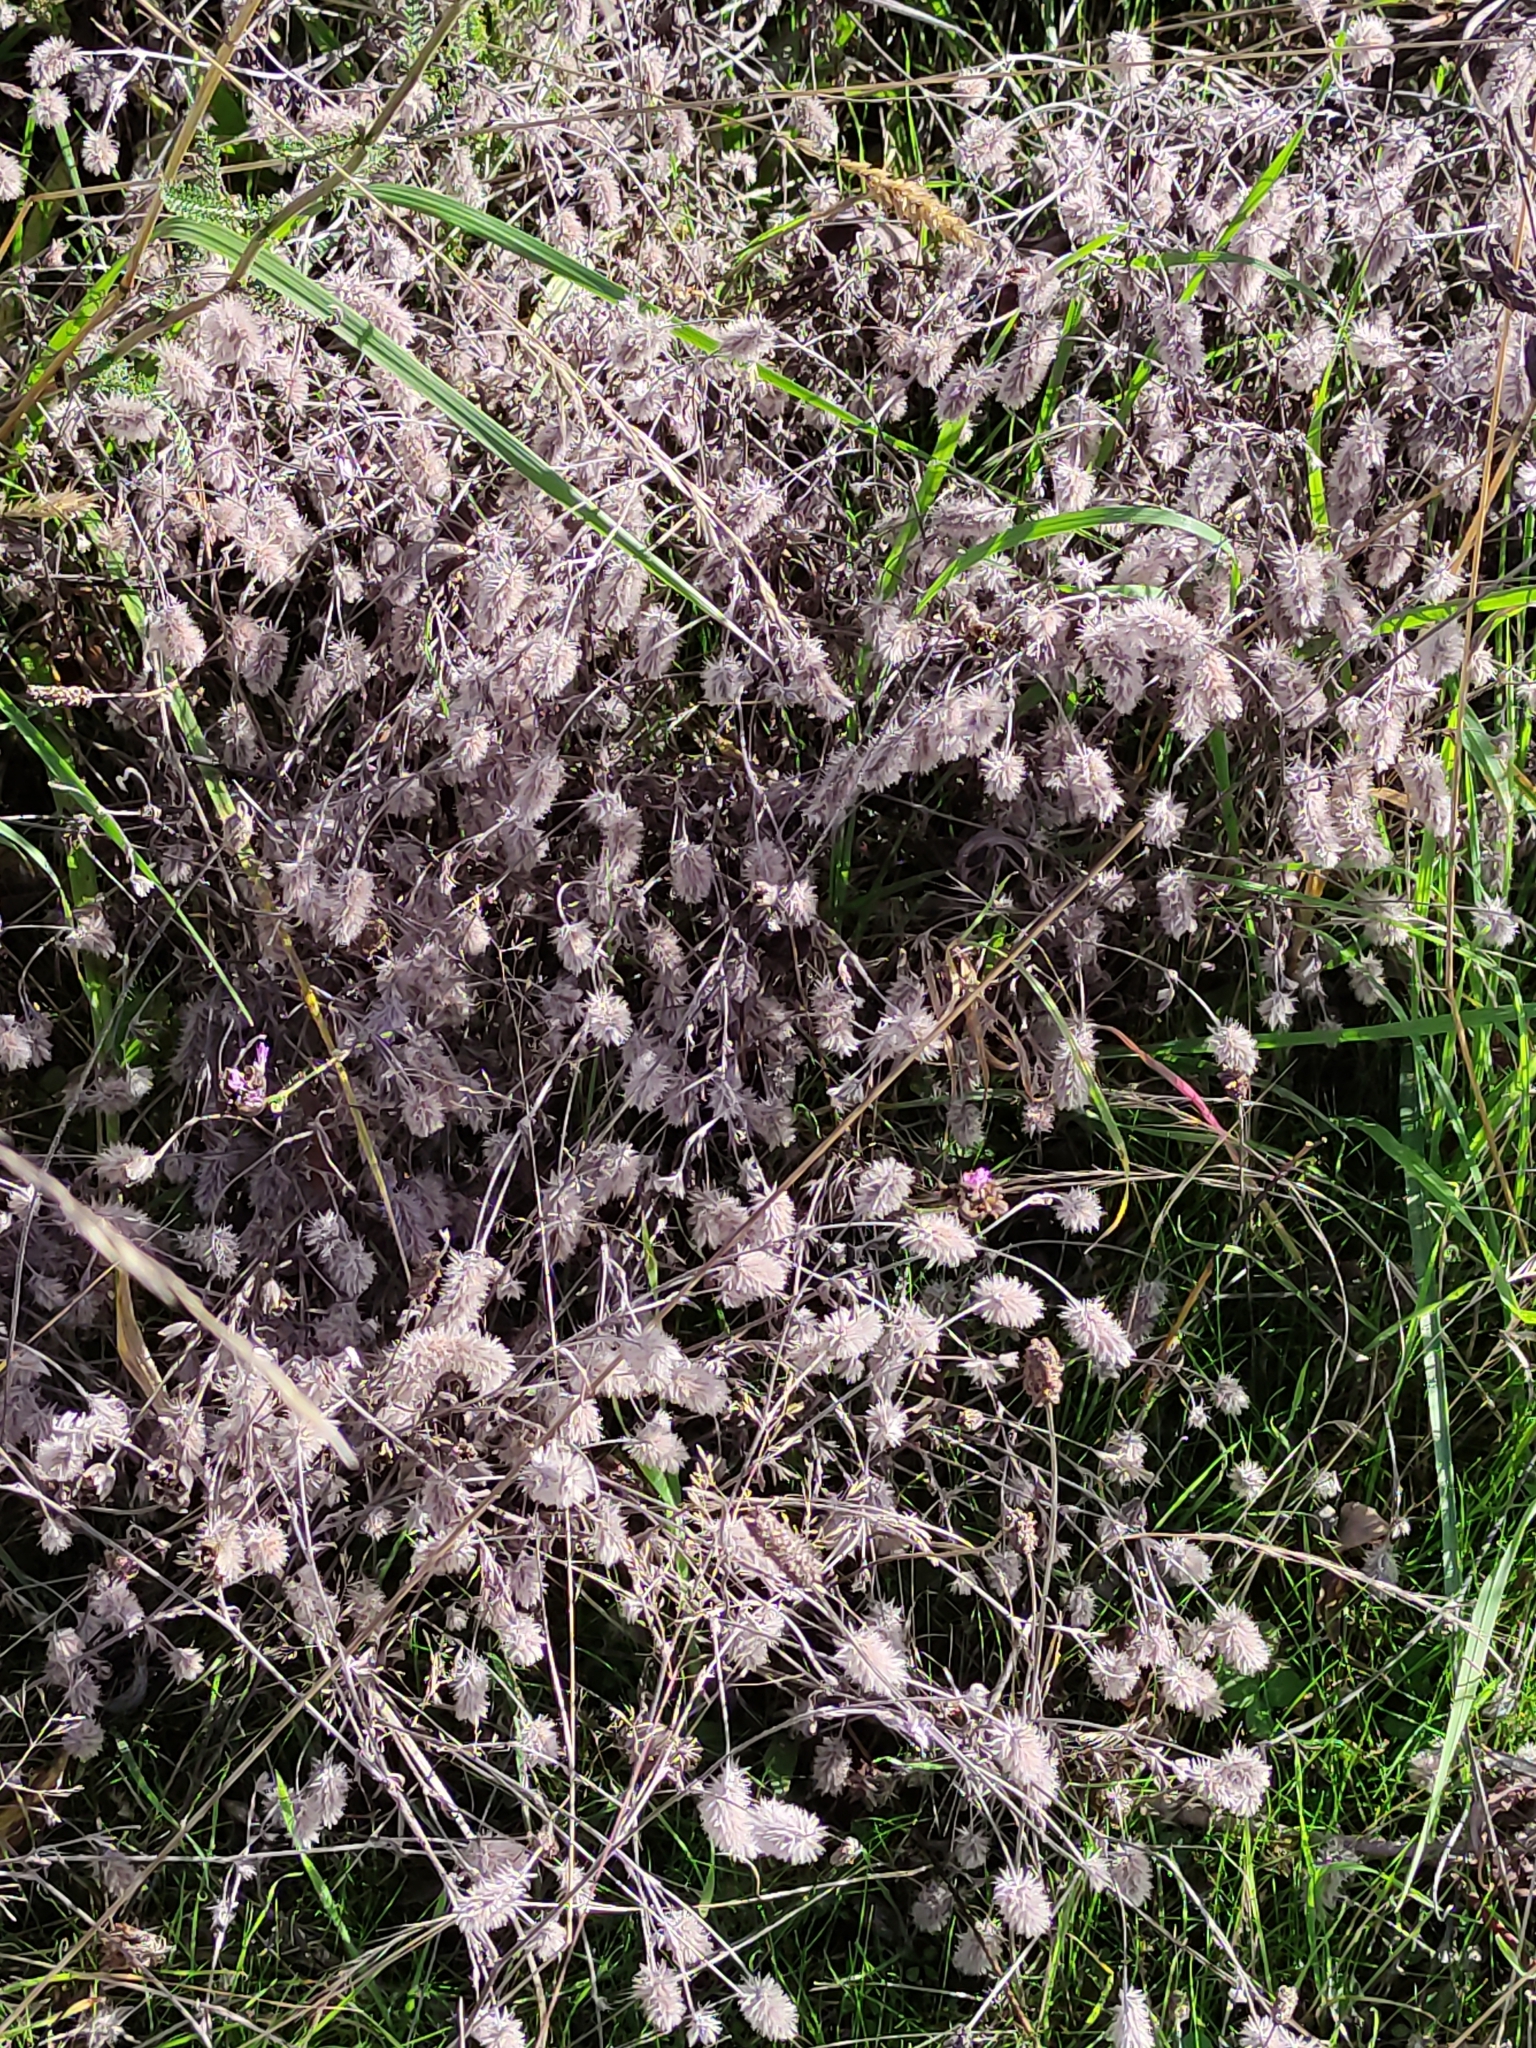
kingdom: Plantae
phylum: Tracheophyta
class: Magnoliopsida
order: Fabales
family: Fabaceae
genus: Trifolium
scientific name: Trifolium arvense
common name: Hare's-foot clover
